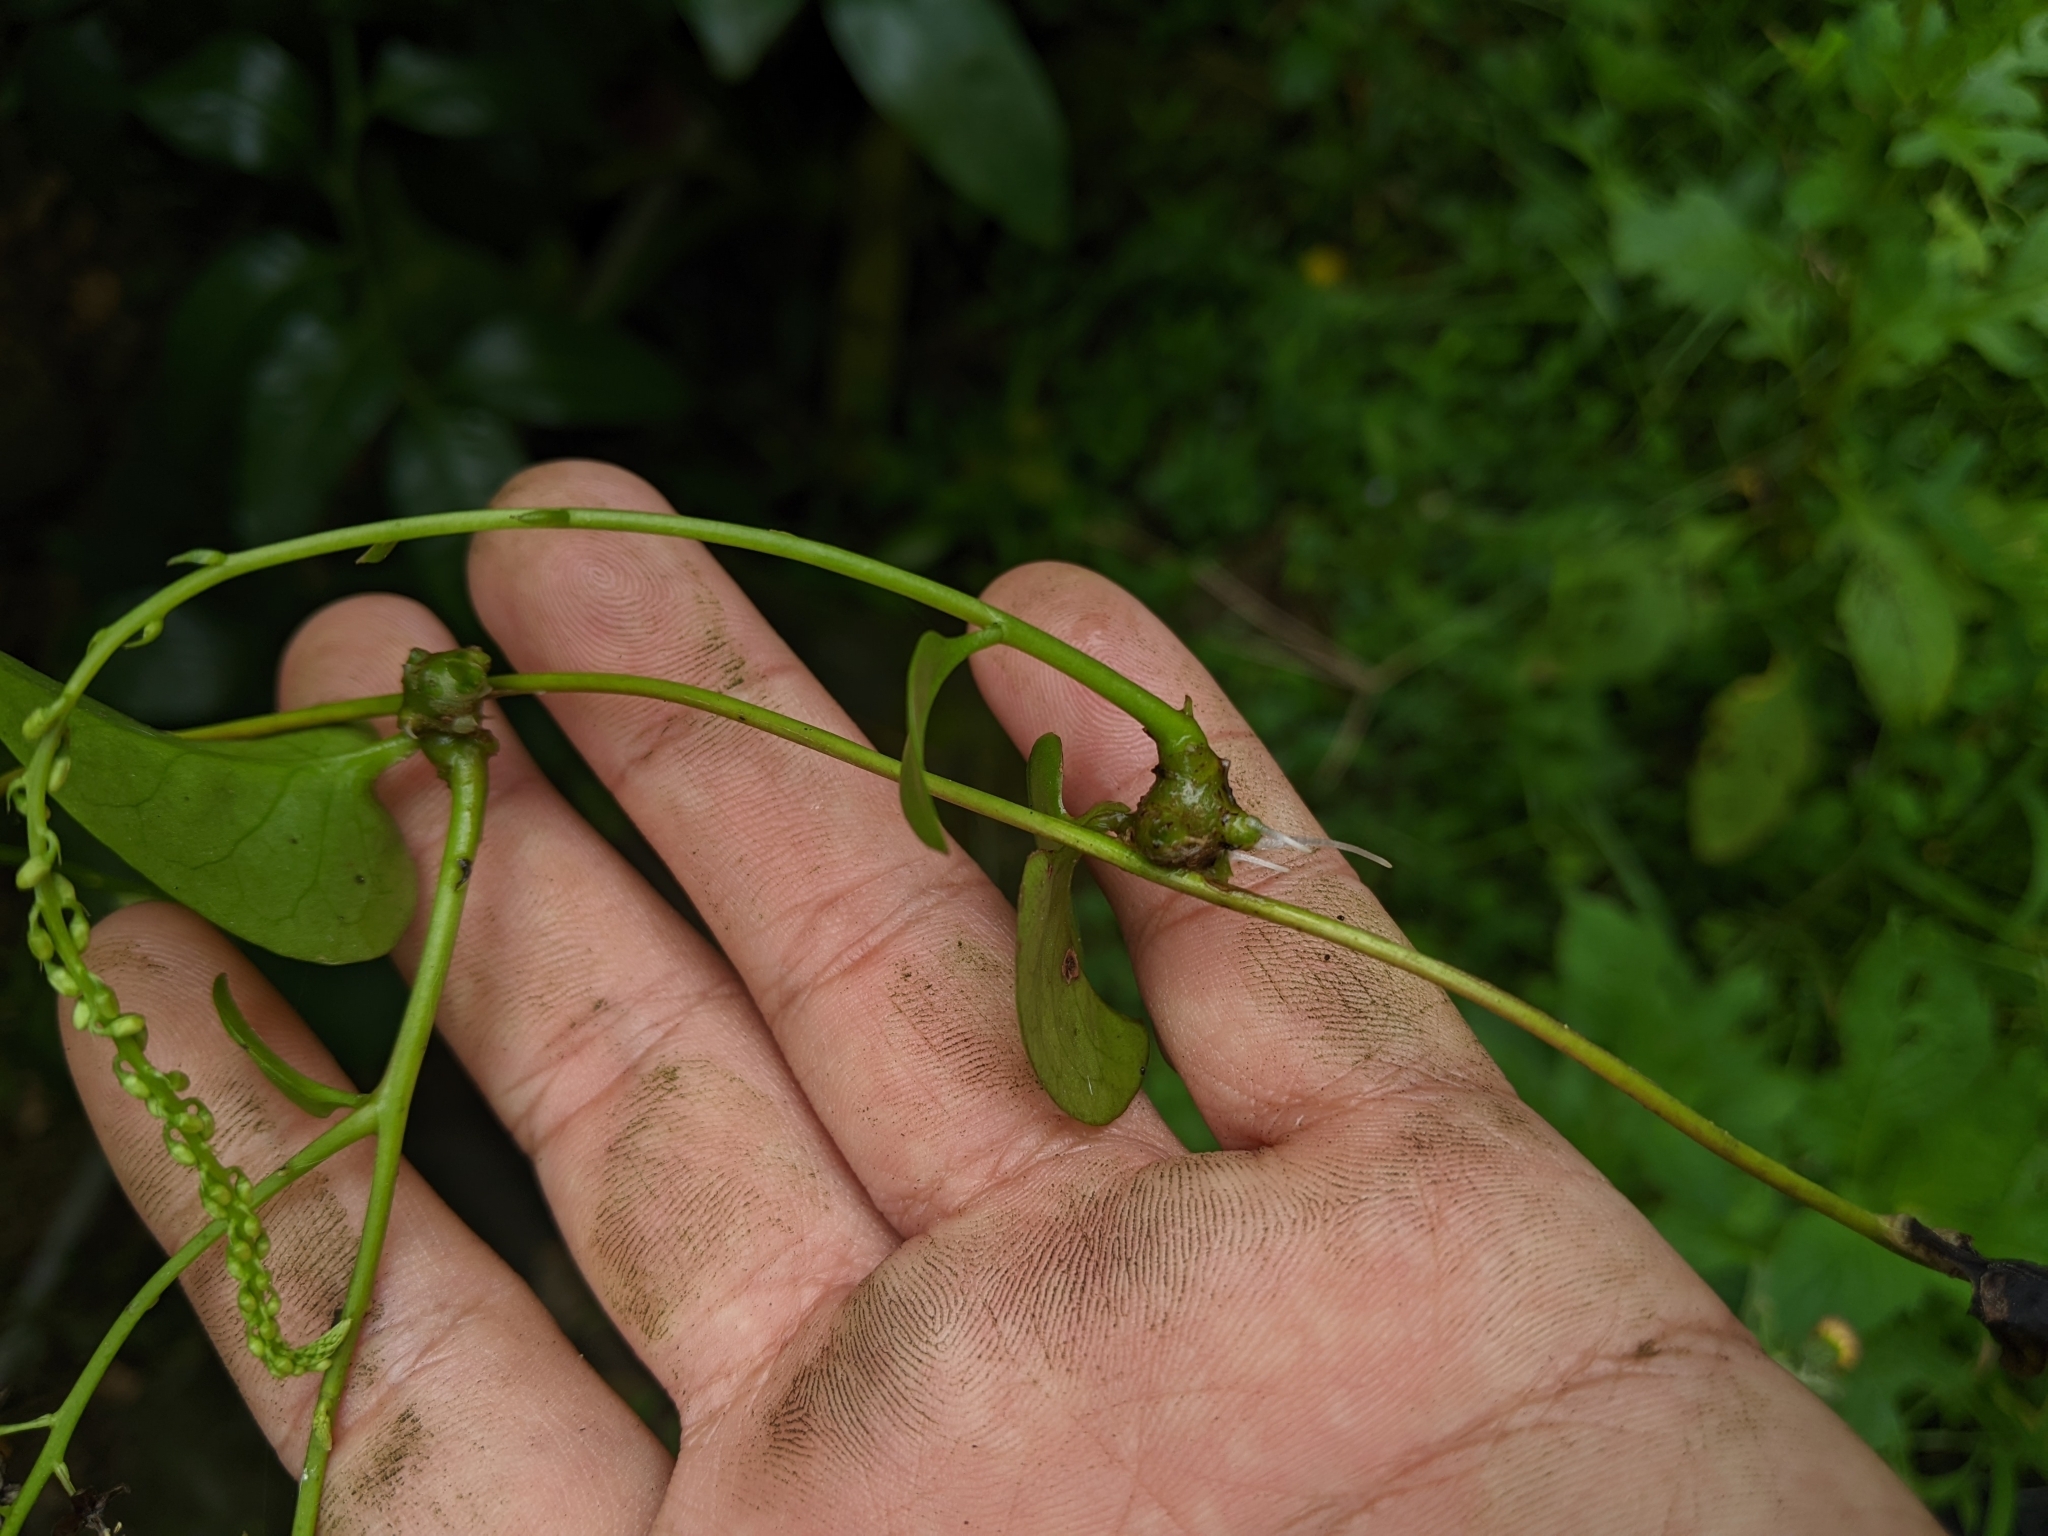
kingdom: Plantae
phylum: Tracheophyta
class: Magnoliopsida
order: Caryophyllales
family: Basellaceae
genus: Anredera
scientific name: Anredera cordifolia
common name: Heartleaf madeiravine
